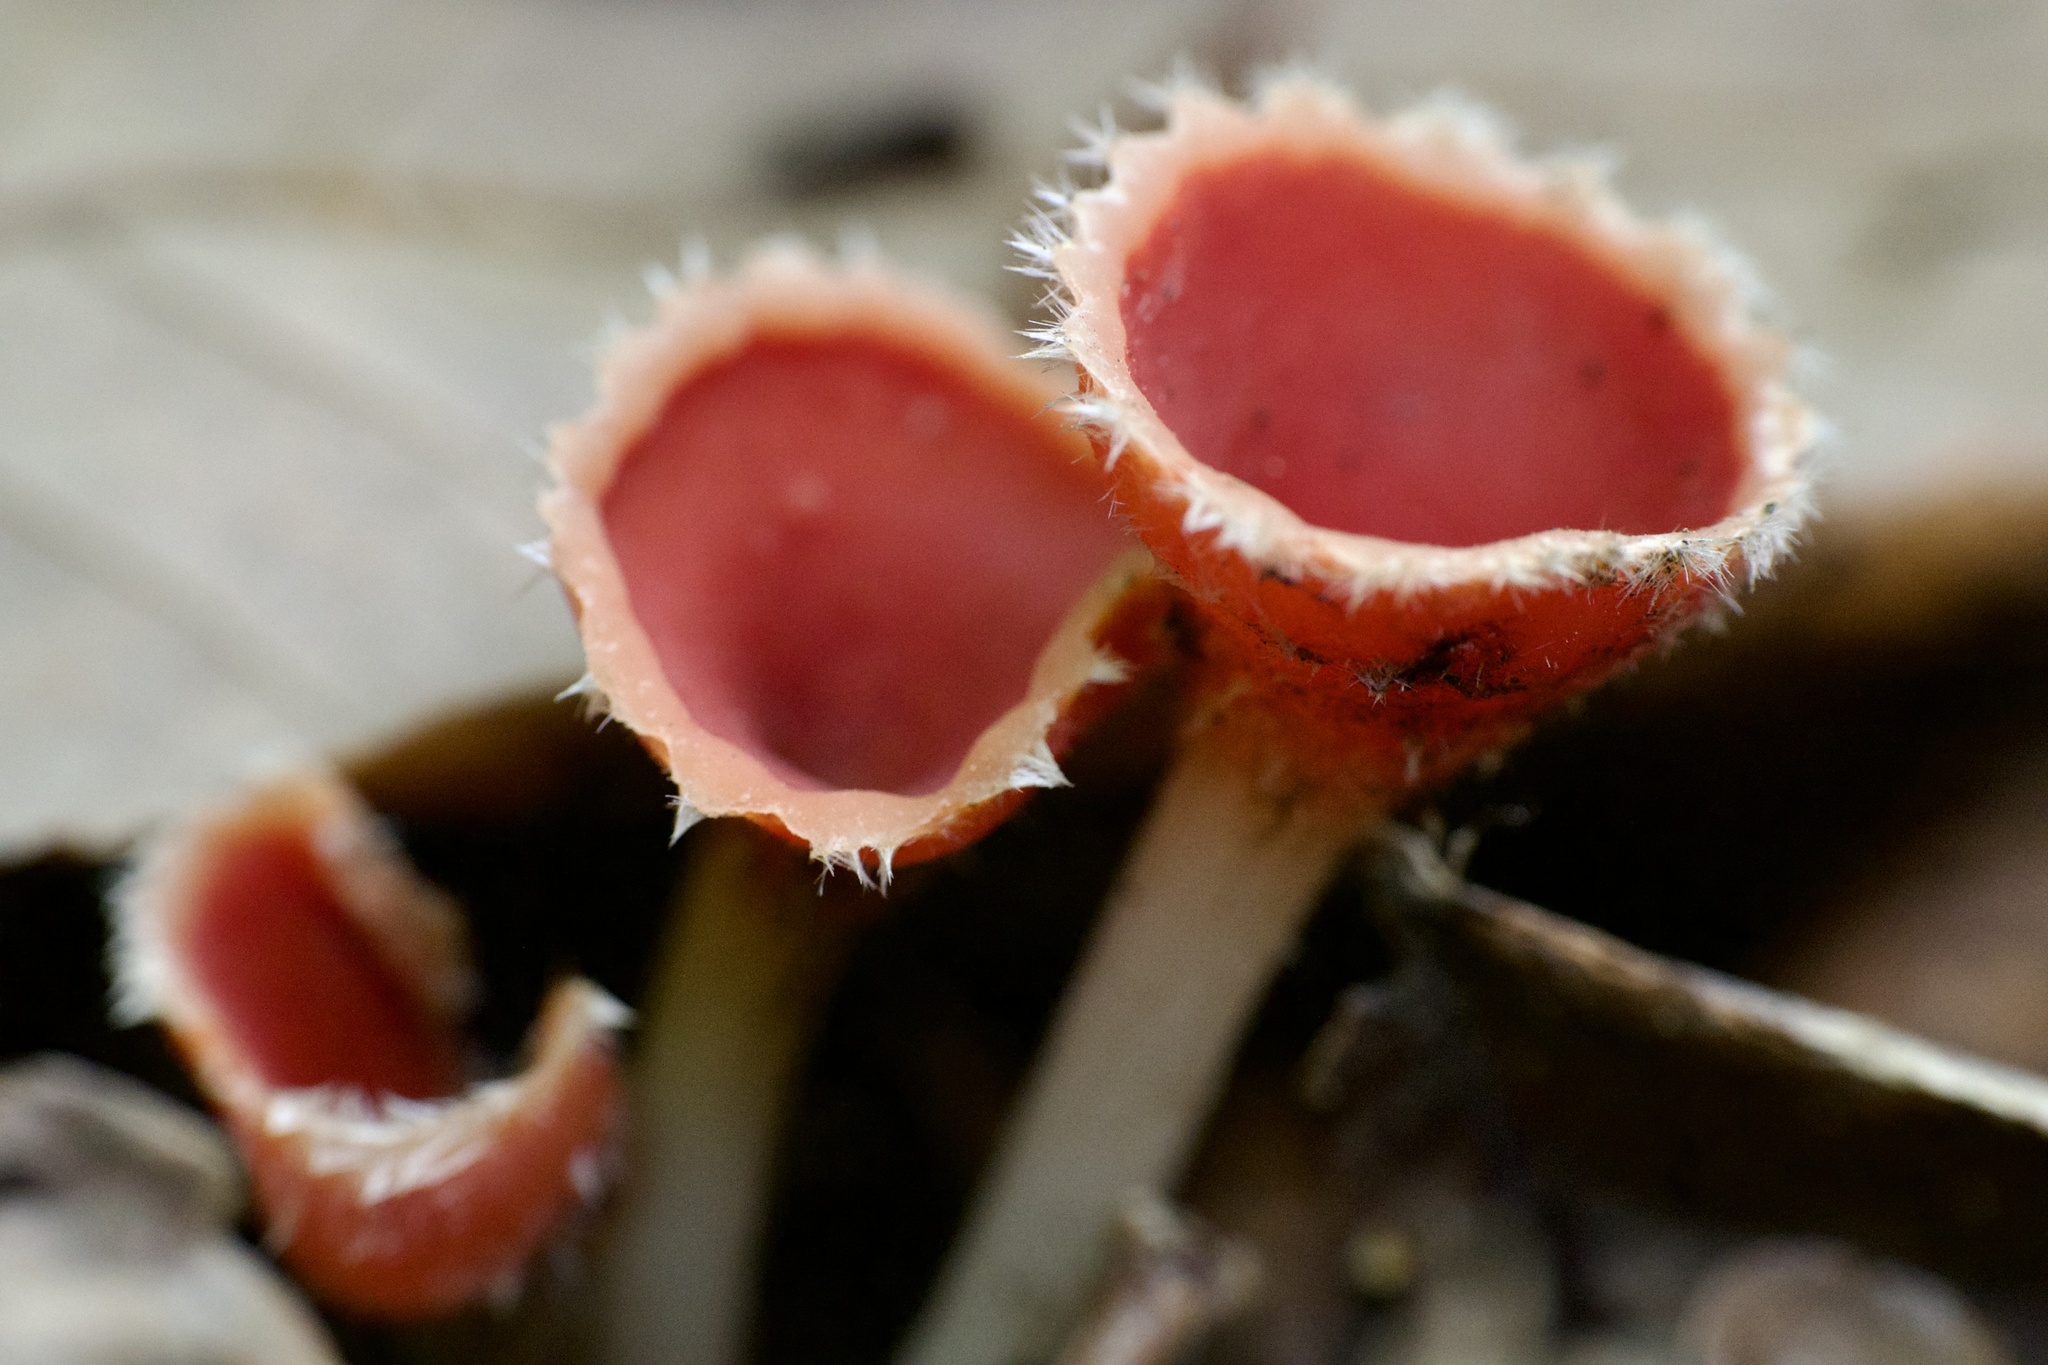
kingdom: Fungi
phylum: Ascomycota
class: Pezizomycetes
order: Pezizales
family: Sarcoscyphaceae
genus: Microstoma
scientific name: Microstoma macrosporum
